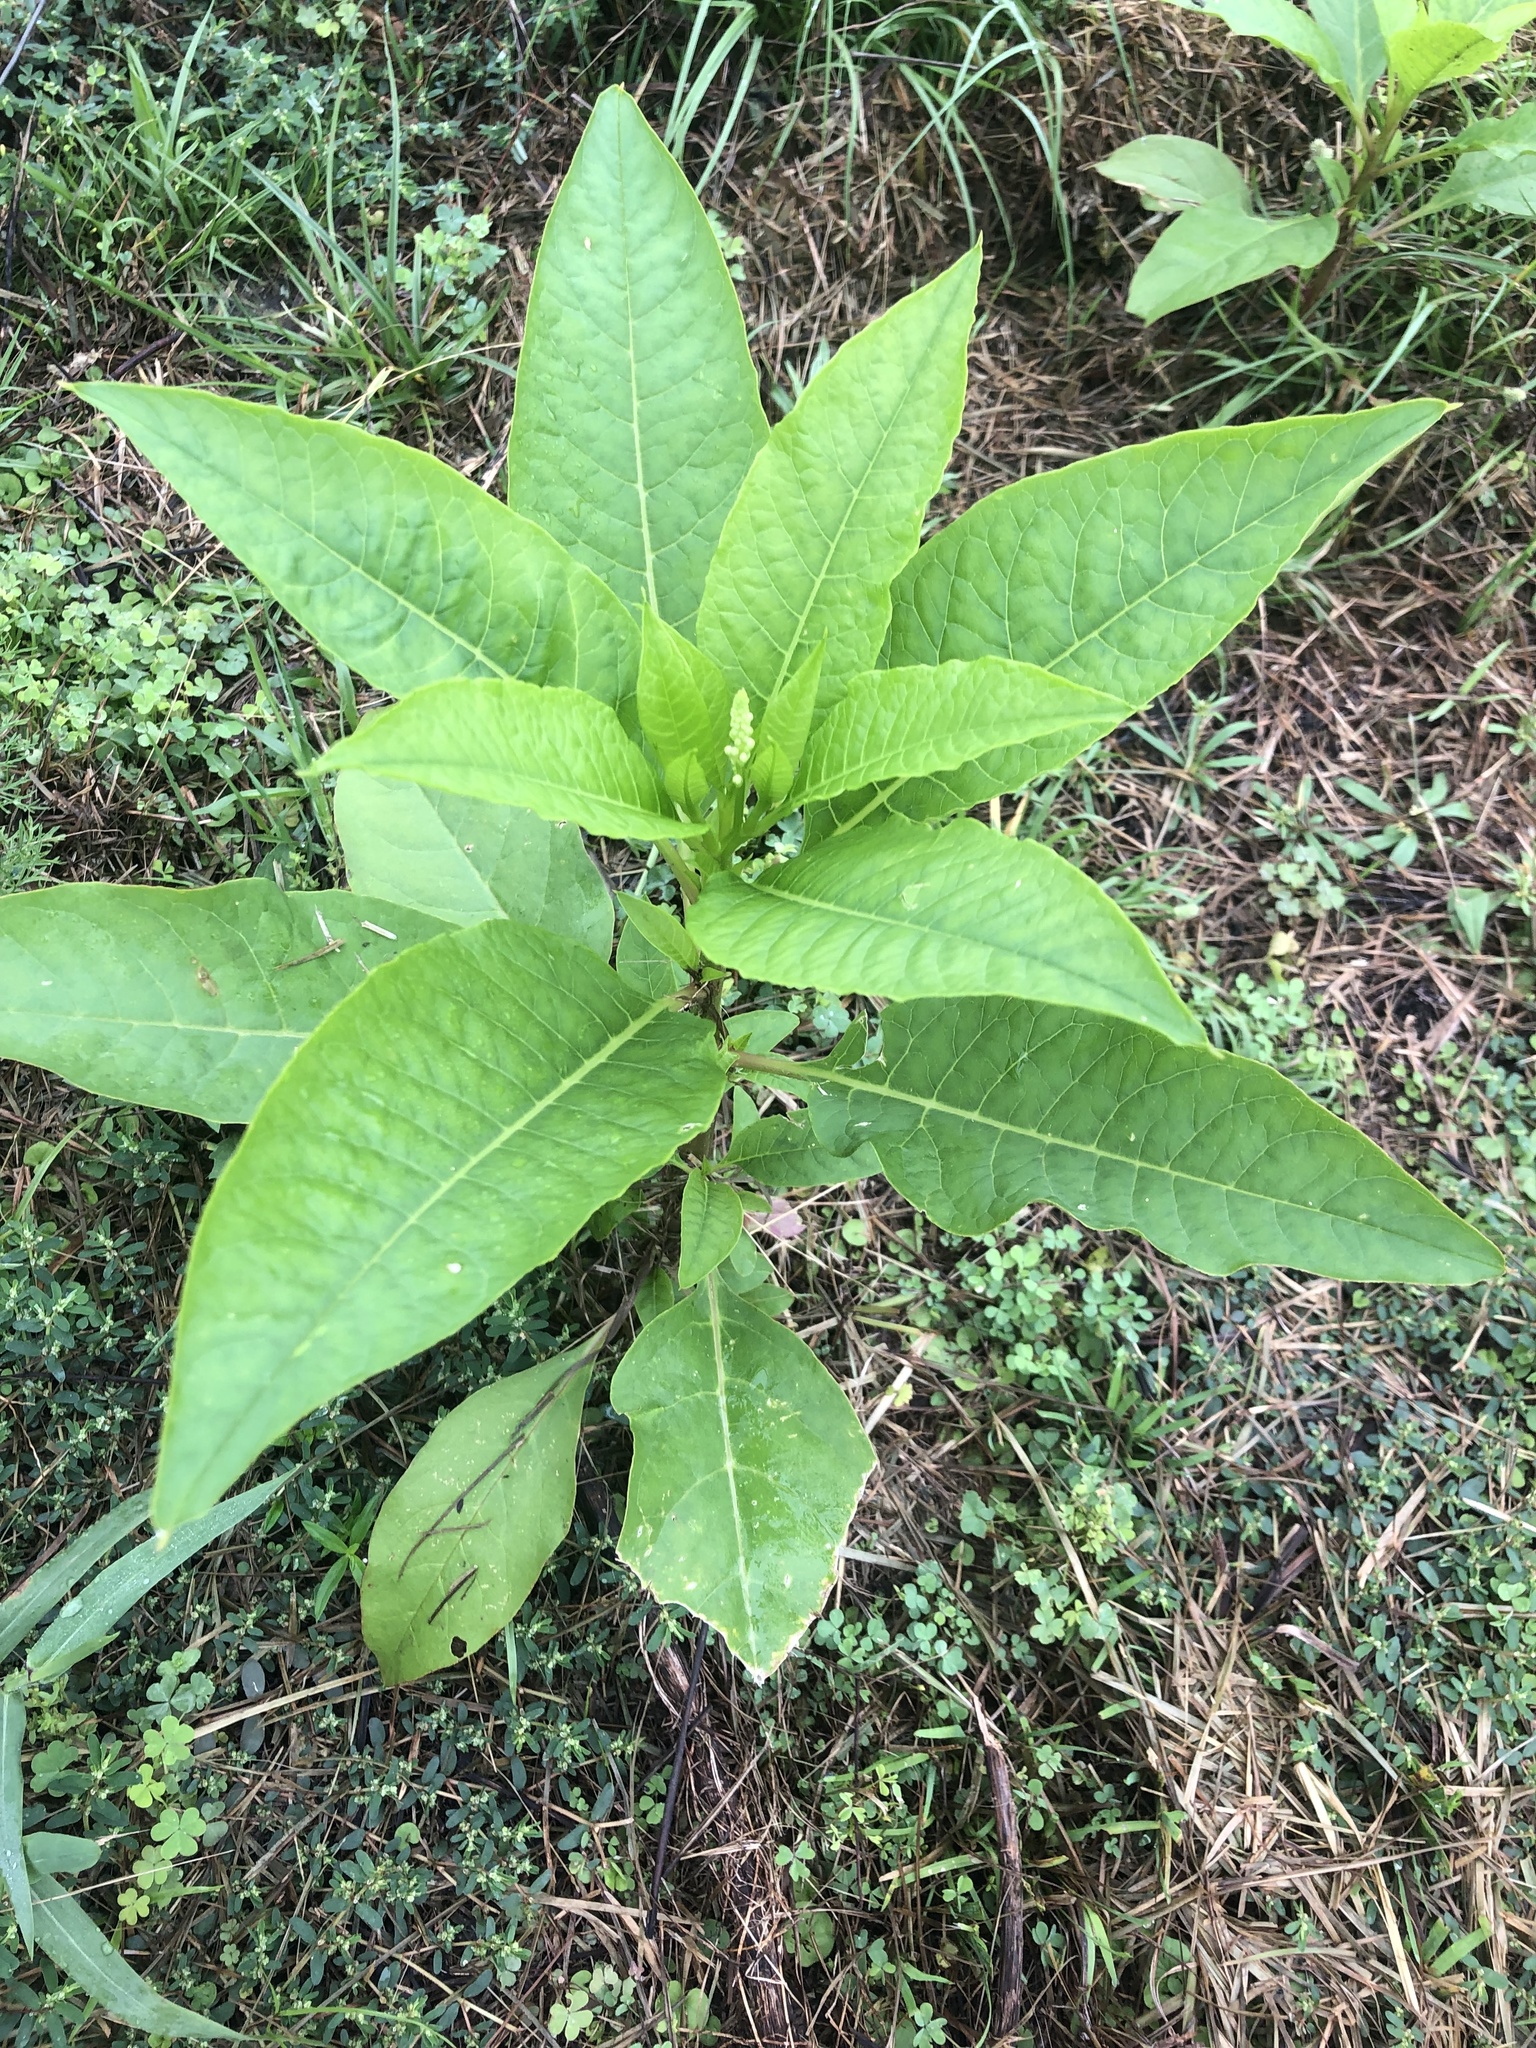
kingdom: Plantae
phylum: Tracheophyta
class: Magnoliopsida
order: Caryophyllales
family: Phytolaccaceae
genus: Phytolacca
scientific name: Phytolacca americana
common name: American pokeweed
